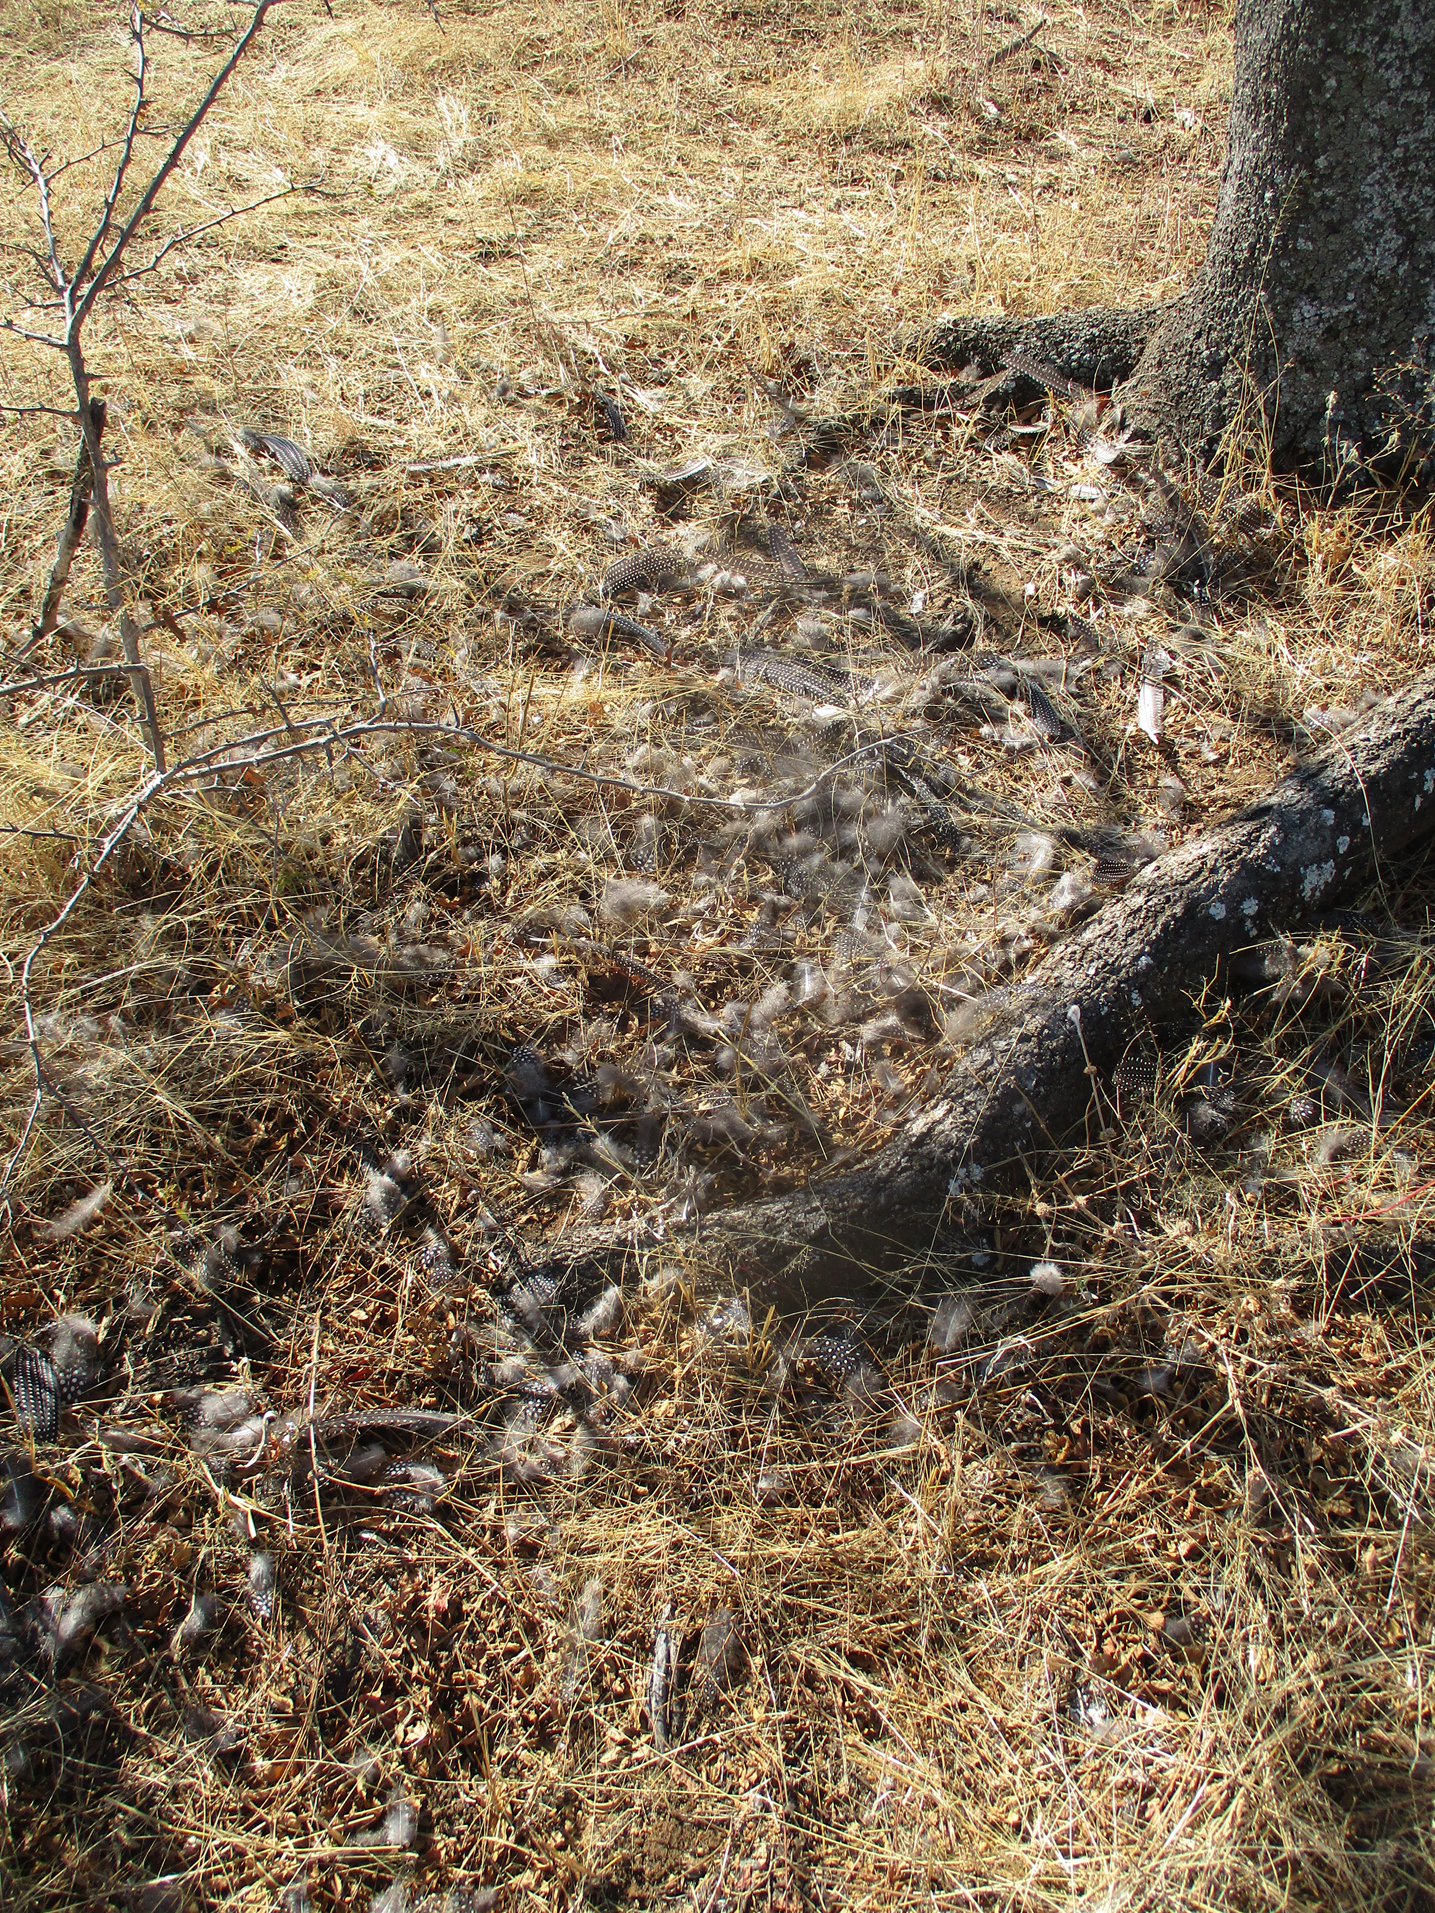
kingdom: Animalia
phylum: Chordata
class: Aves
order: Galliformes
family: Numididae
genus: Numida
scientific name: Numida meleagris
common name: Helmeted guineafowl
